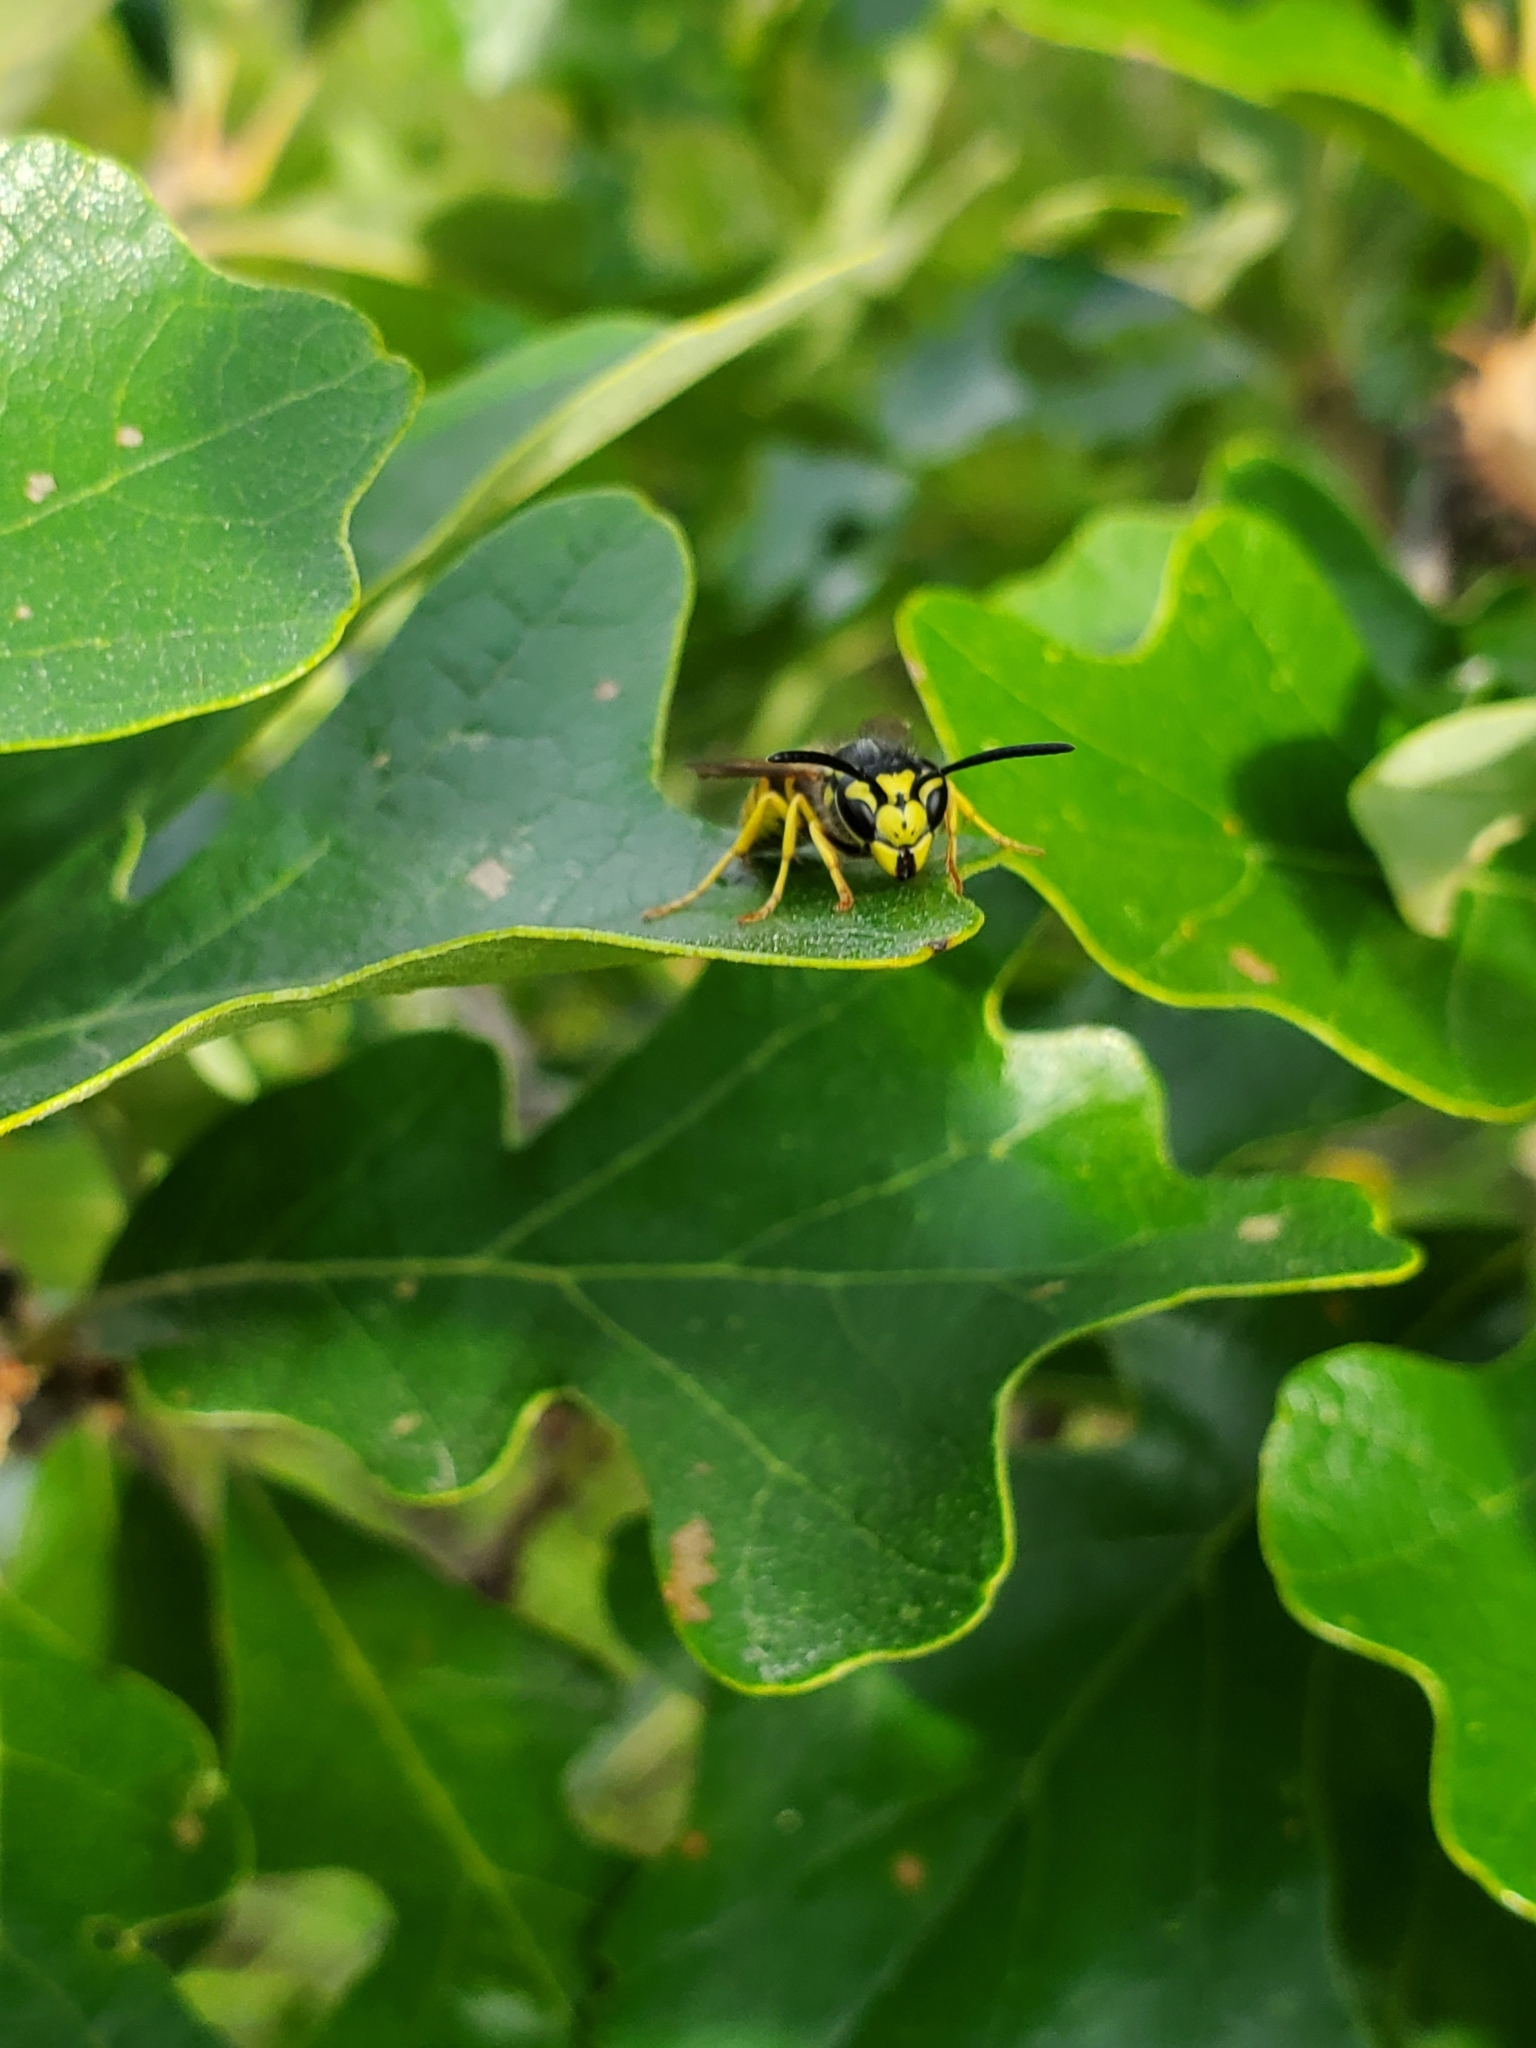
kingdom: Animalia
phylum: Arthropoda
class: Insecta
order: Hymenoptera
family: Vespidae
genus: Vespula
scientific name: Vespula maculifrons
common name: Eastern yellowjacket
